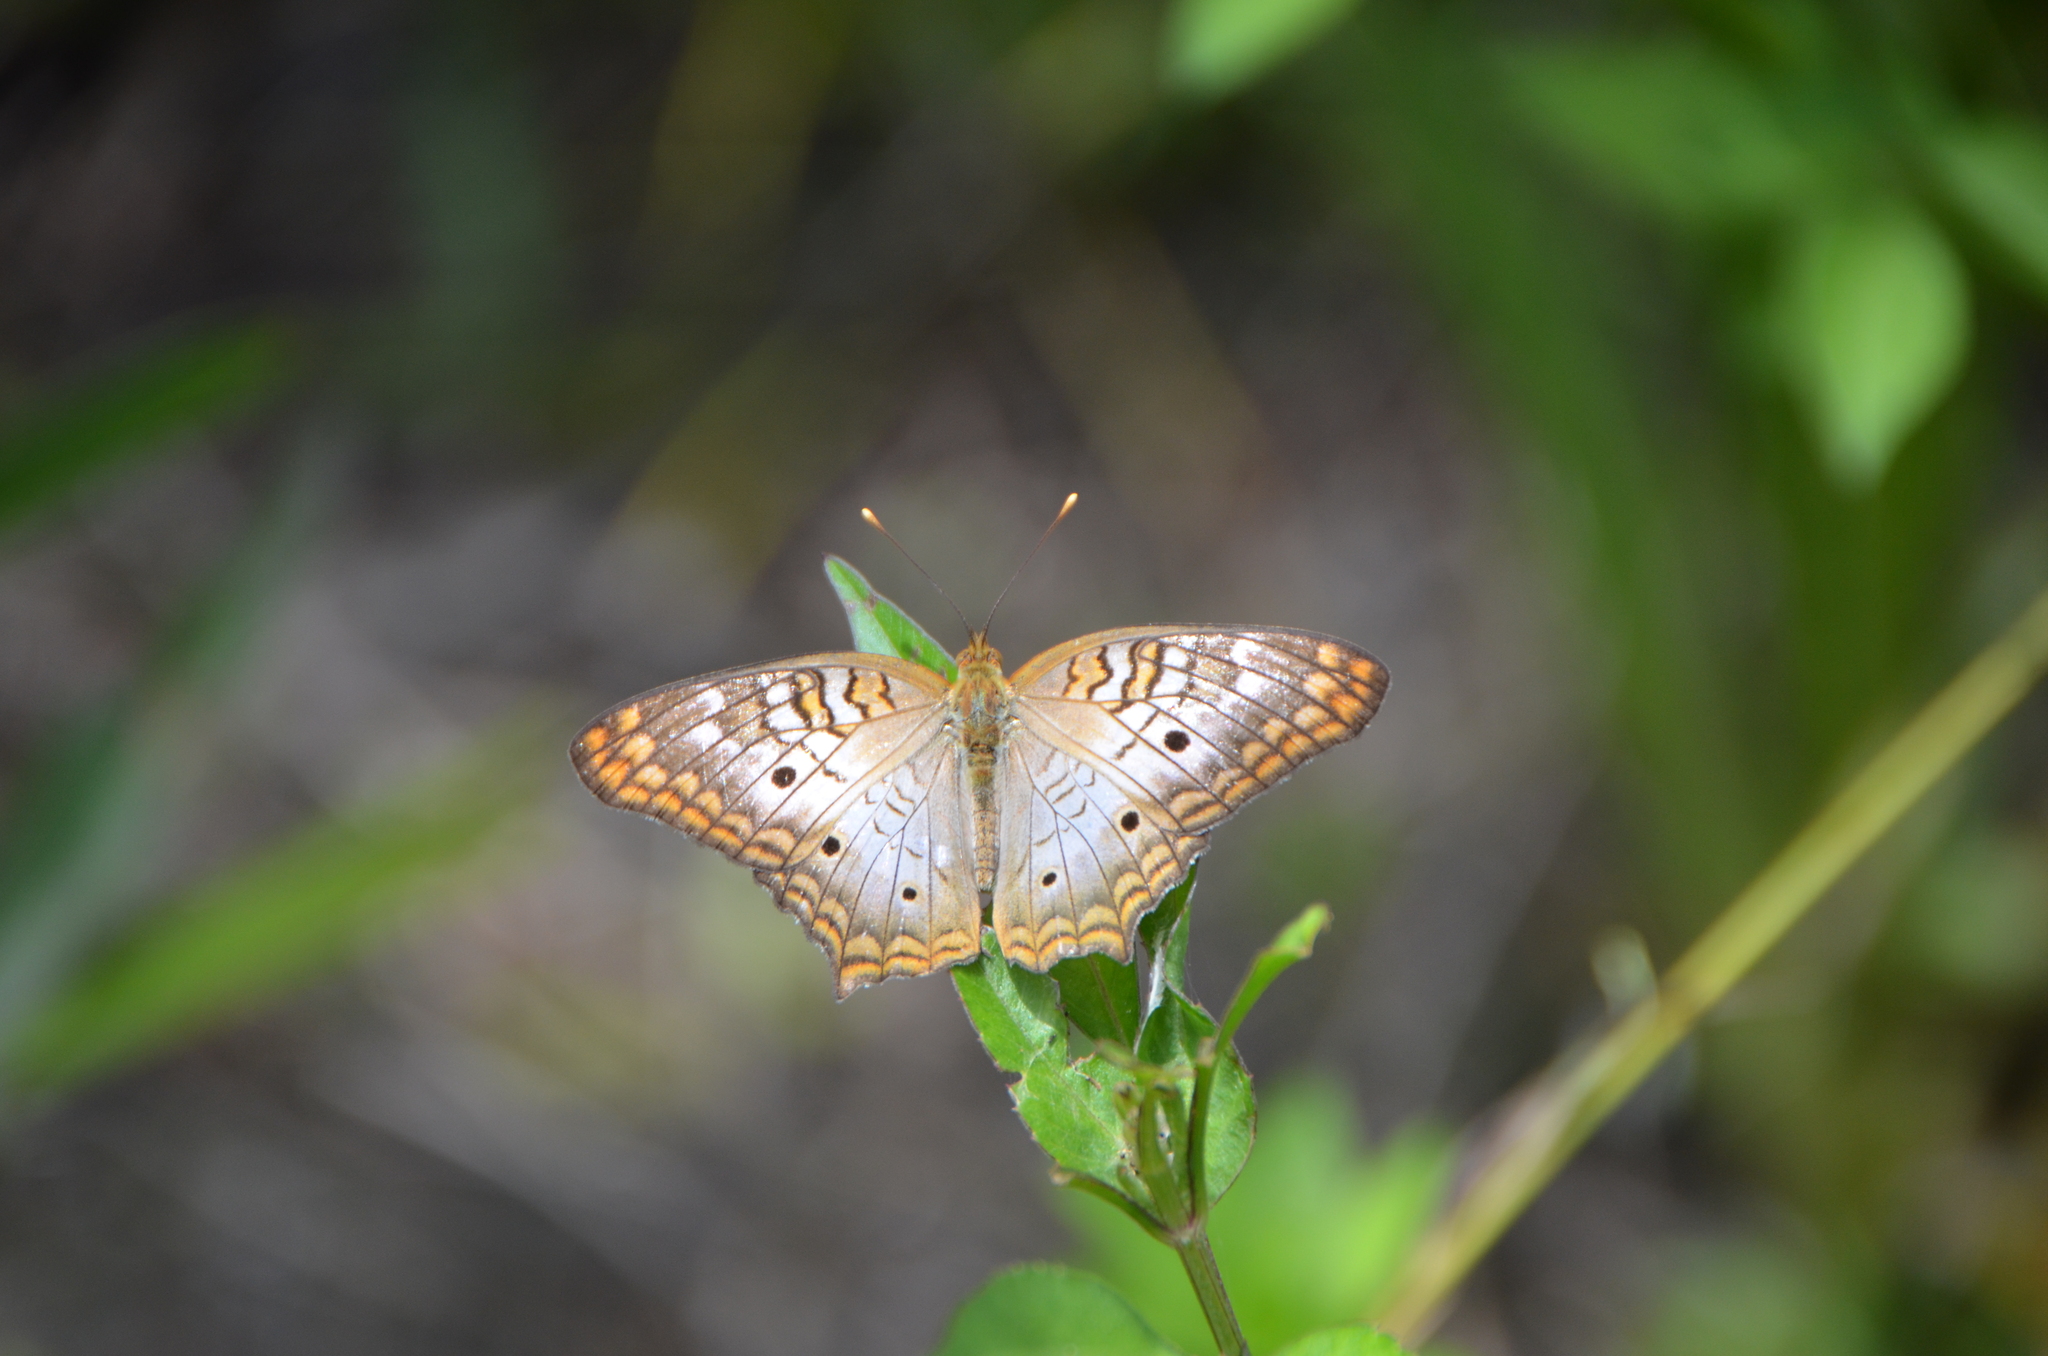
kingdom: Animalia
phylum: Arthropoda
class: Insecta
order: Lepidoptera
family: Nymphalidae
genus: Anartia
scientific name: Anartia jatrophae
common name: White peacock
